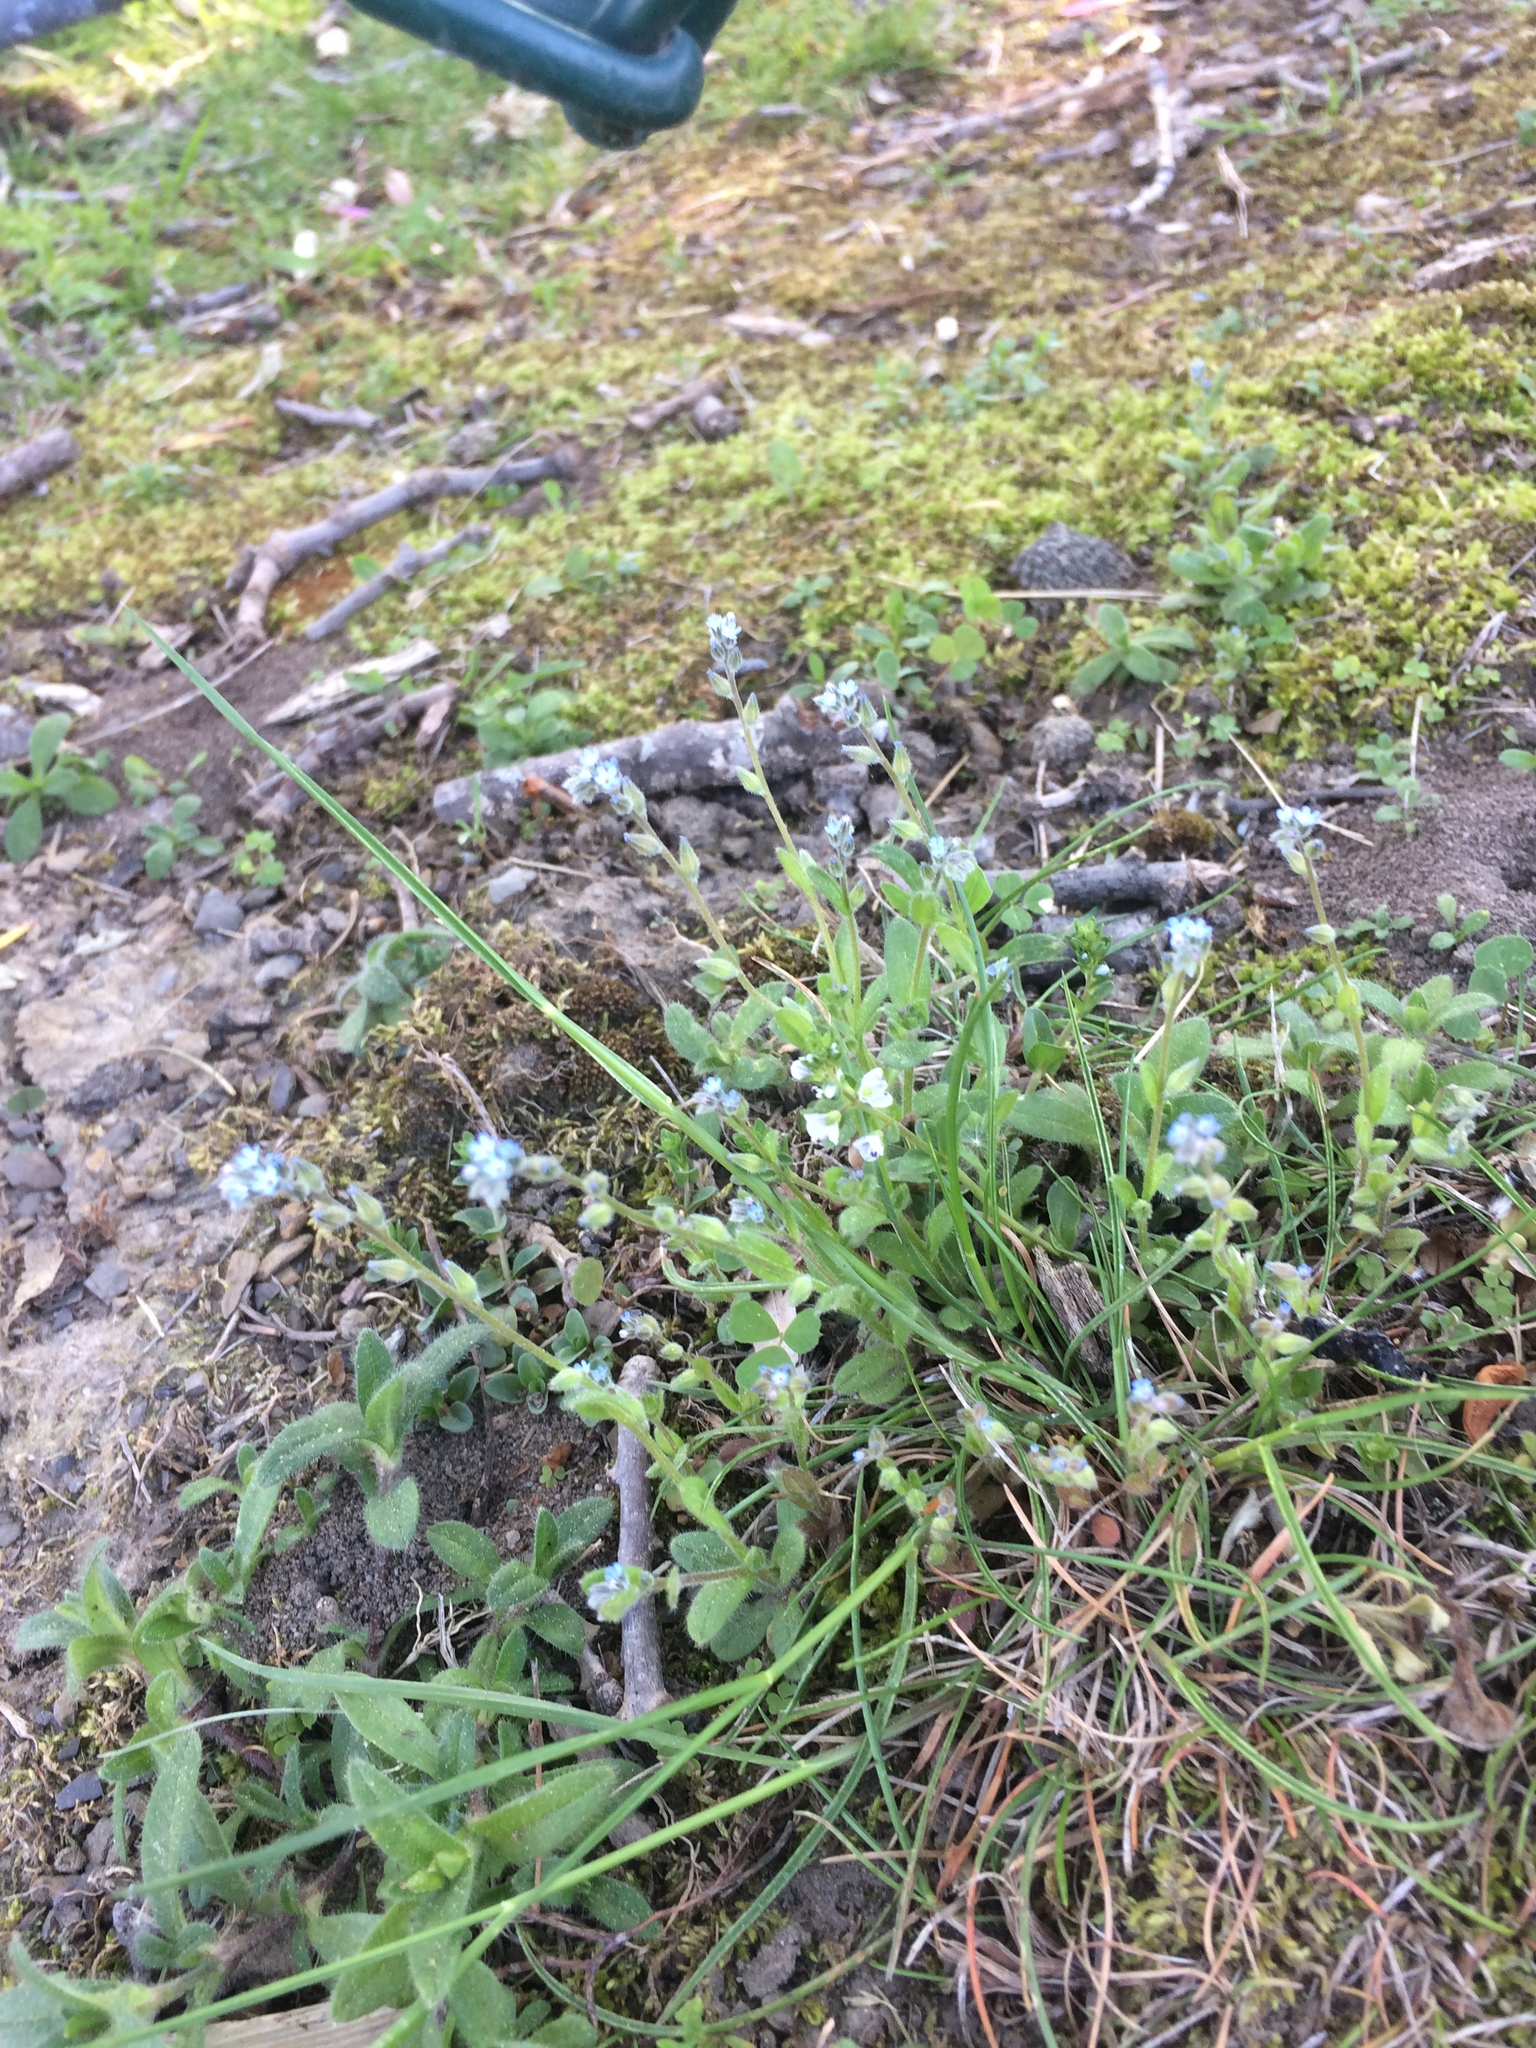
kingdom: Plantae
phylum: Tracheophyta
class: Magnoliopsida
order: Boraginales
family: Boraginaceae
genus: Myosotis
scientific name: Myosotis stricta
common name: Strict forget-me-not
